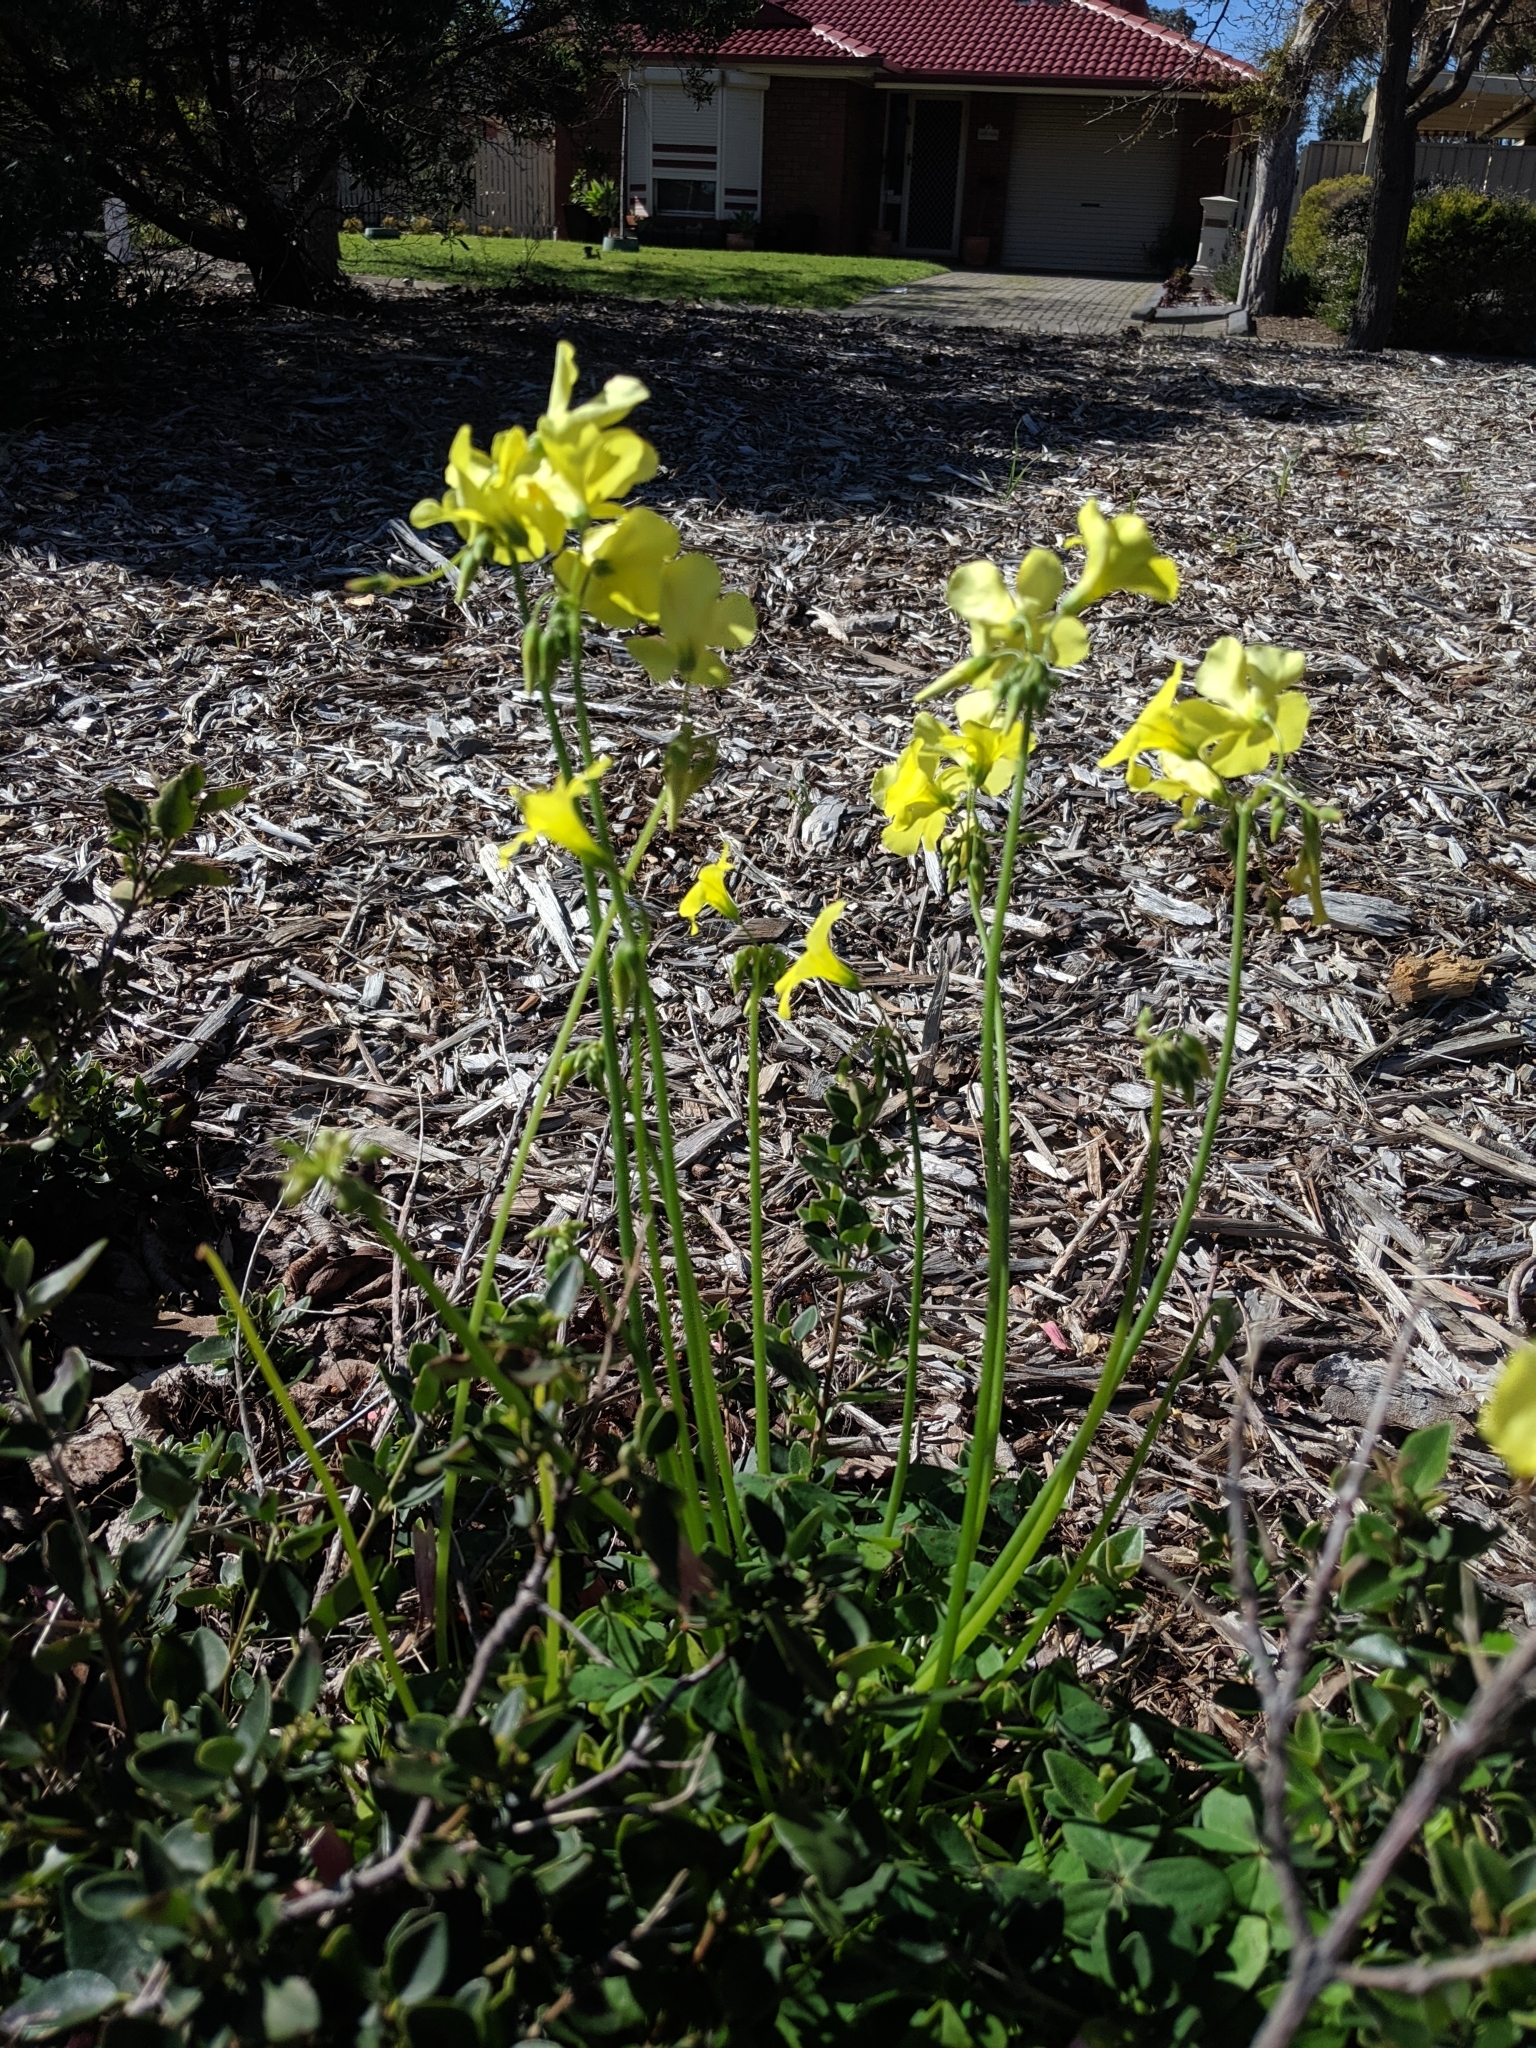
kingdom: Plantae
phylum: Tracheophyta
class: Magnoliopsida
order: Oxalidales
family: Oxalidaceae
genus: Oxalis
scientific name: Oxalis pes-caprae
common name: Bermuda-buttercup
